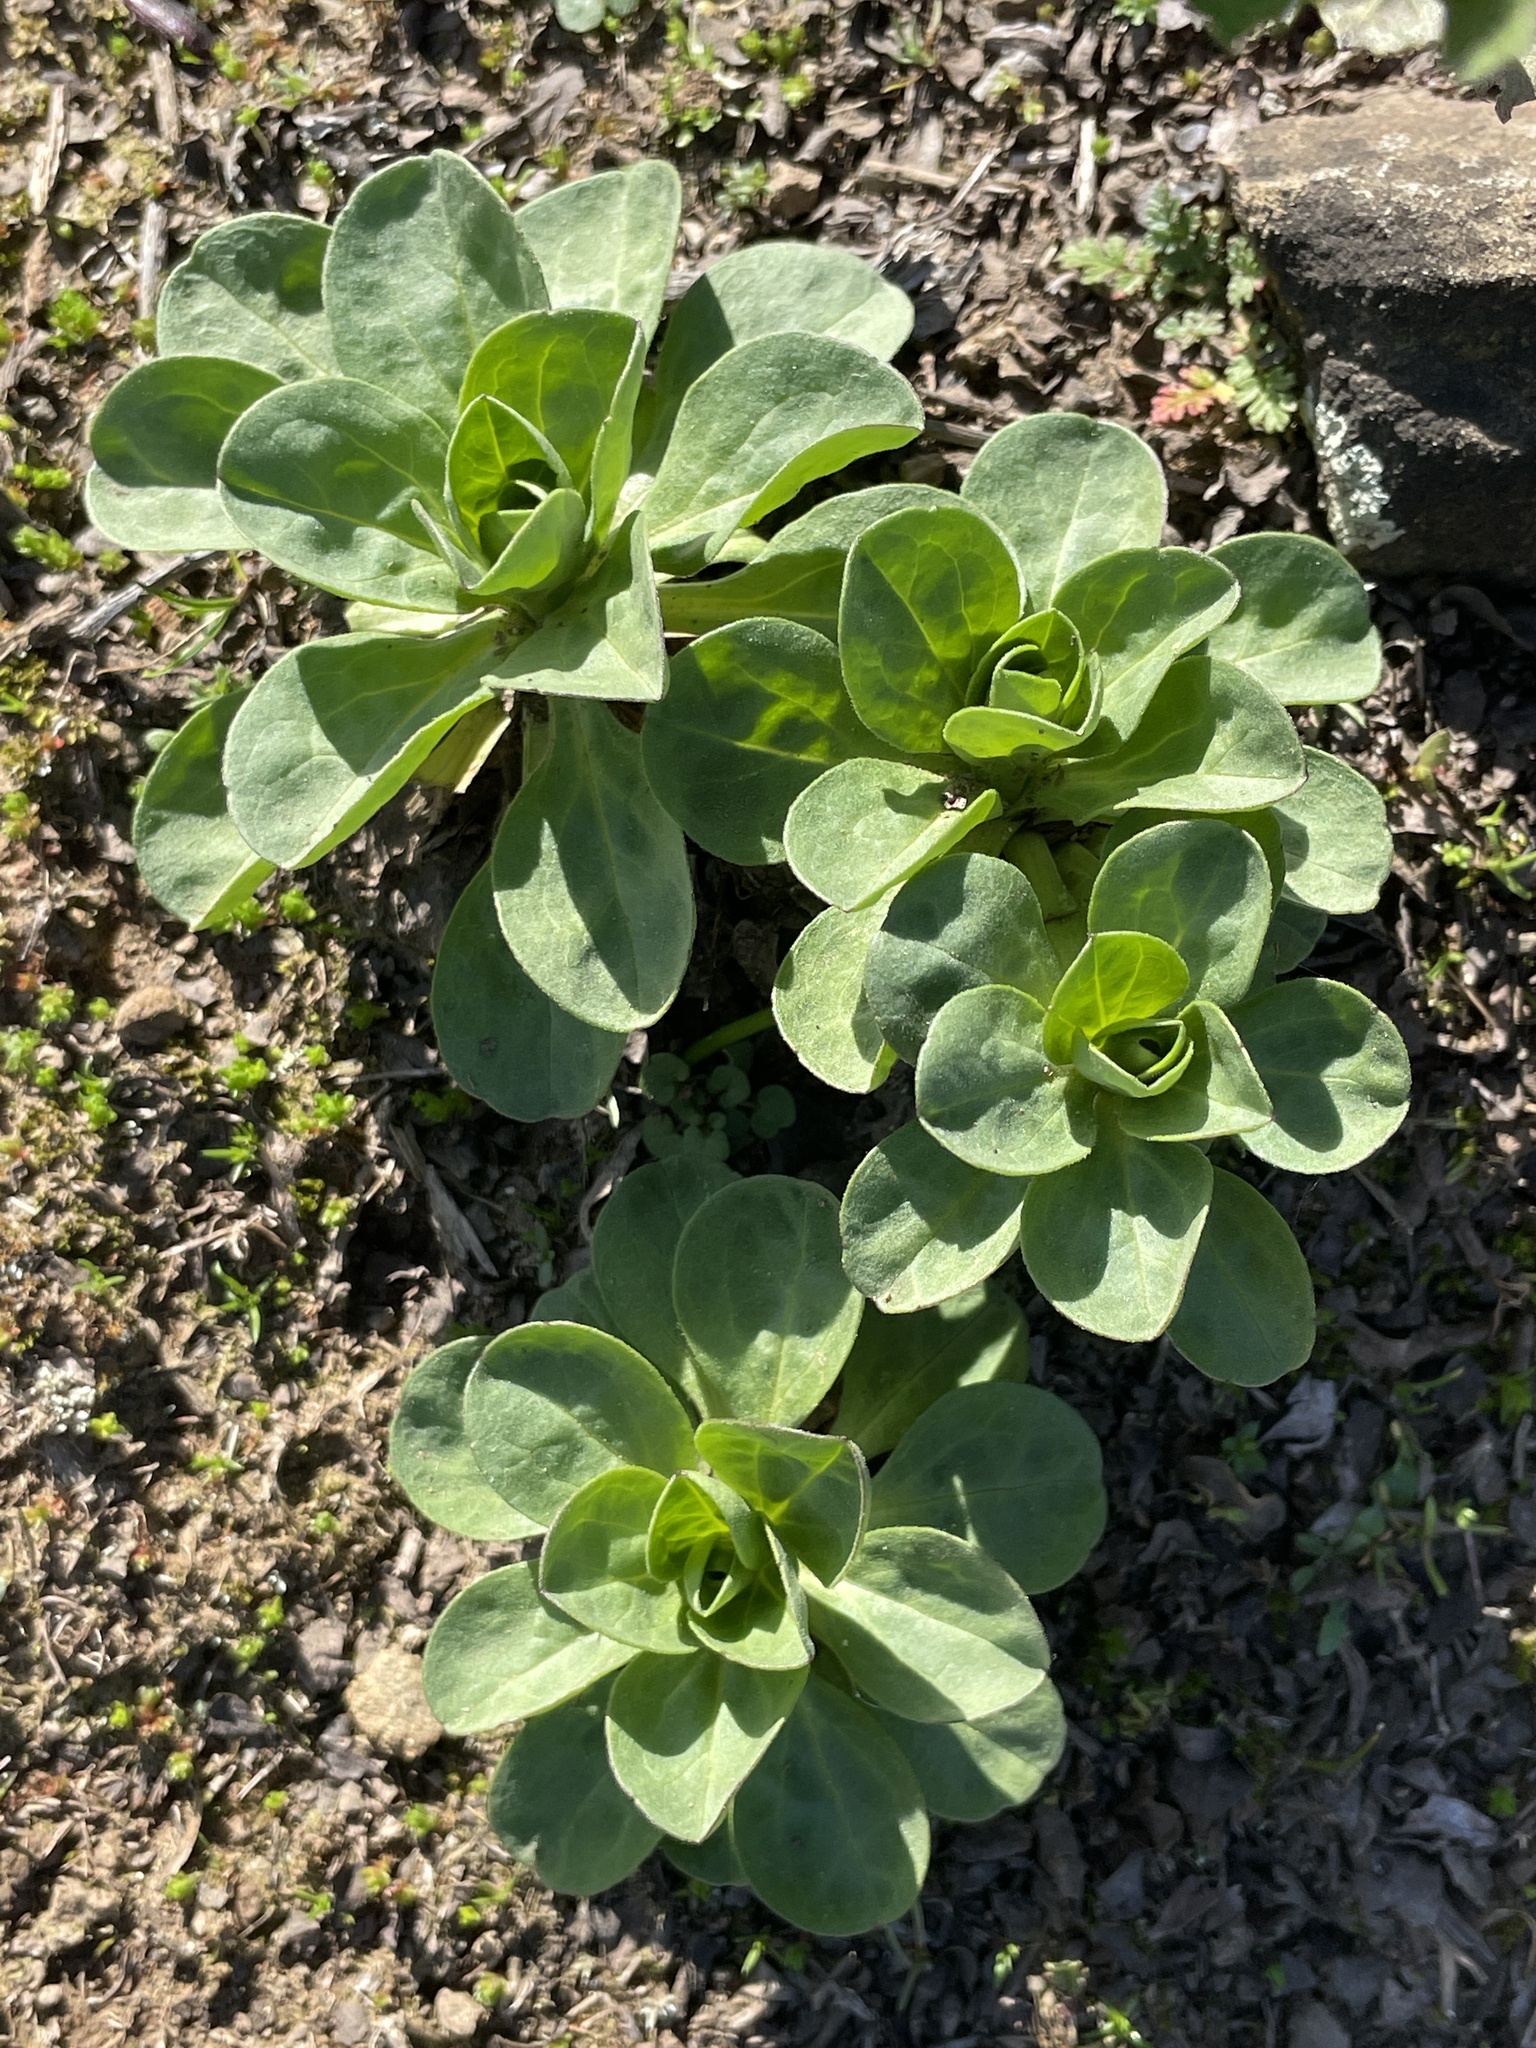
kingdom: Plantae
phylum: Tracheophyta
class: Magnoliopsida
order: Asterales
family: Asteraceae
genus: Erigeron
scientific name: Erigeron glaucus
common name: Seaside daisy
